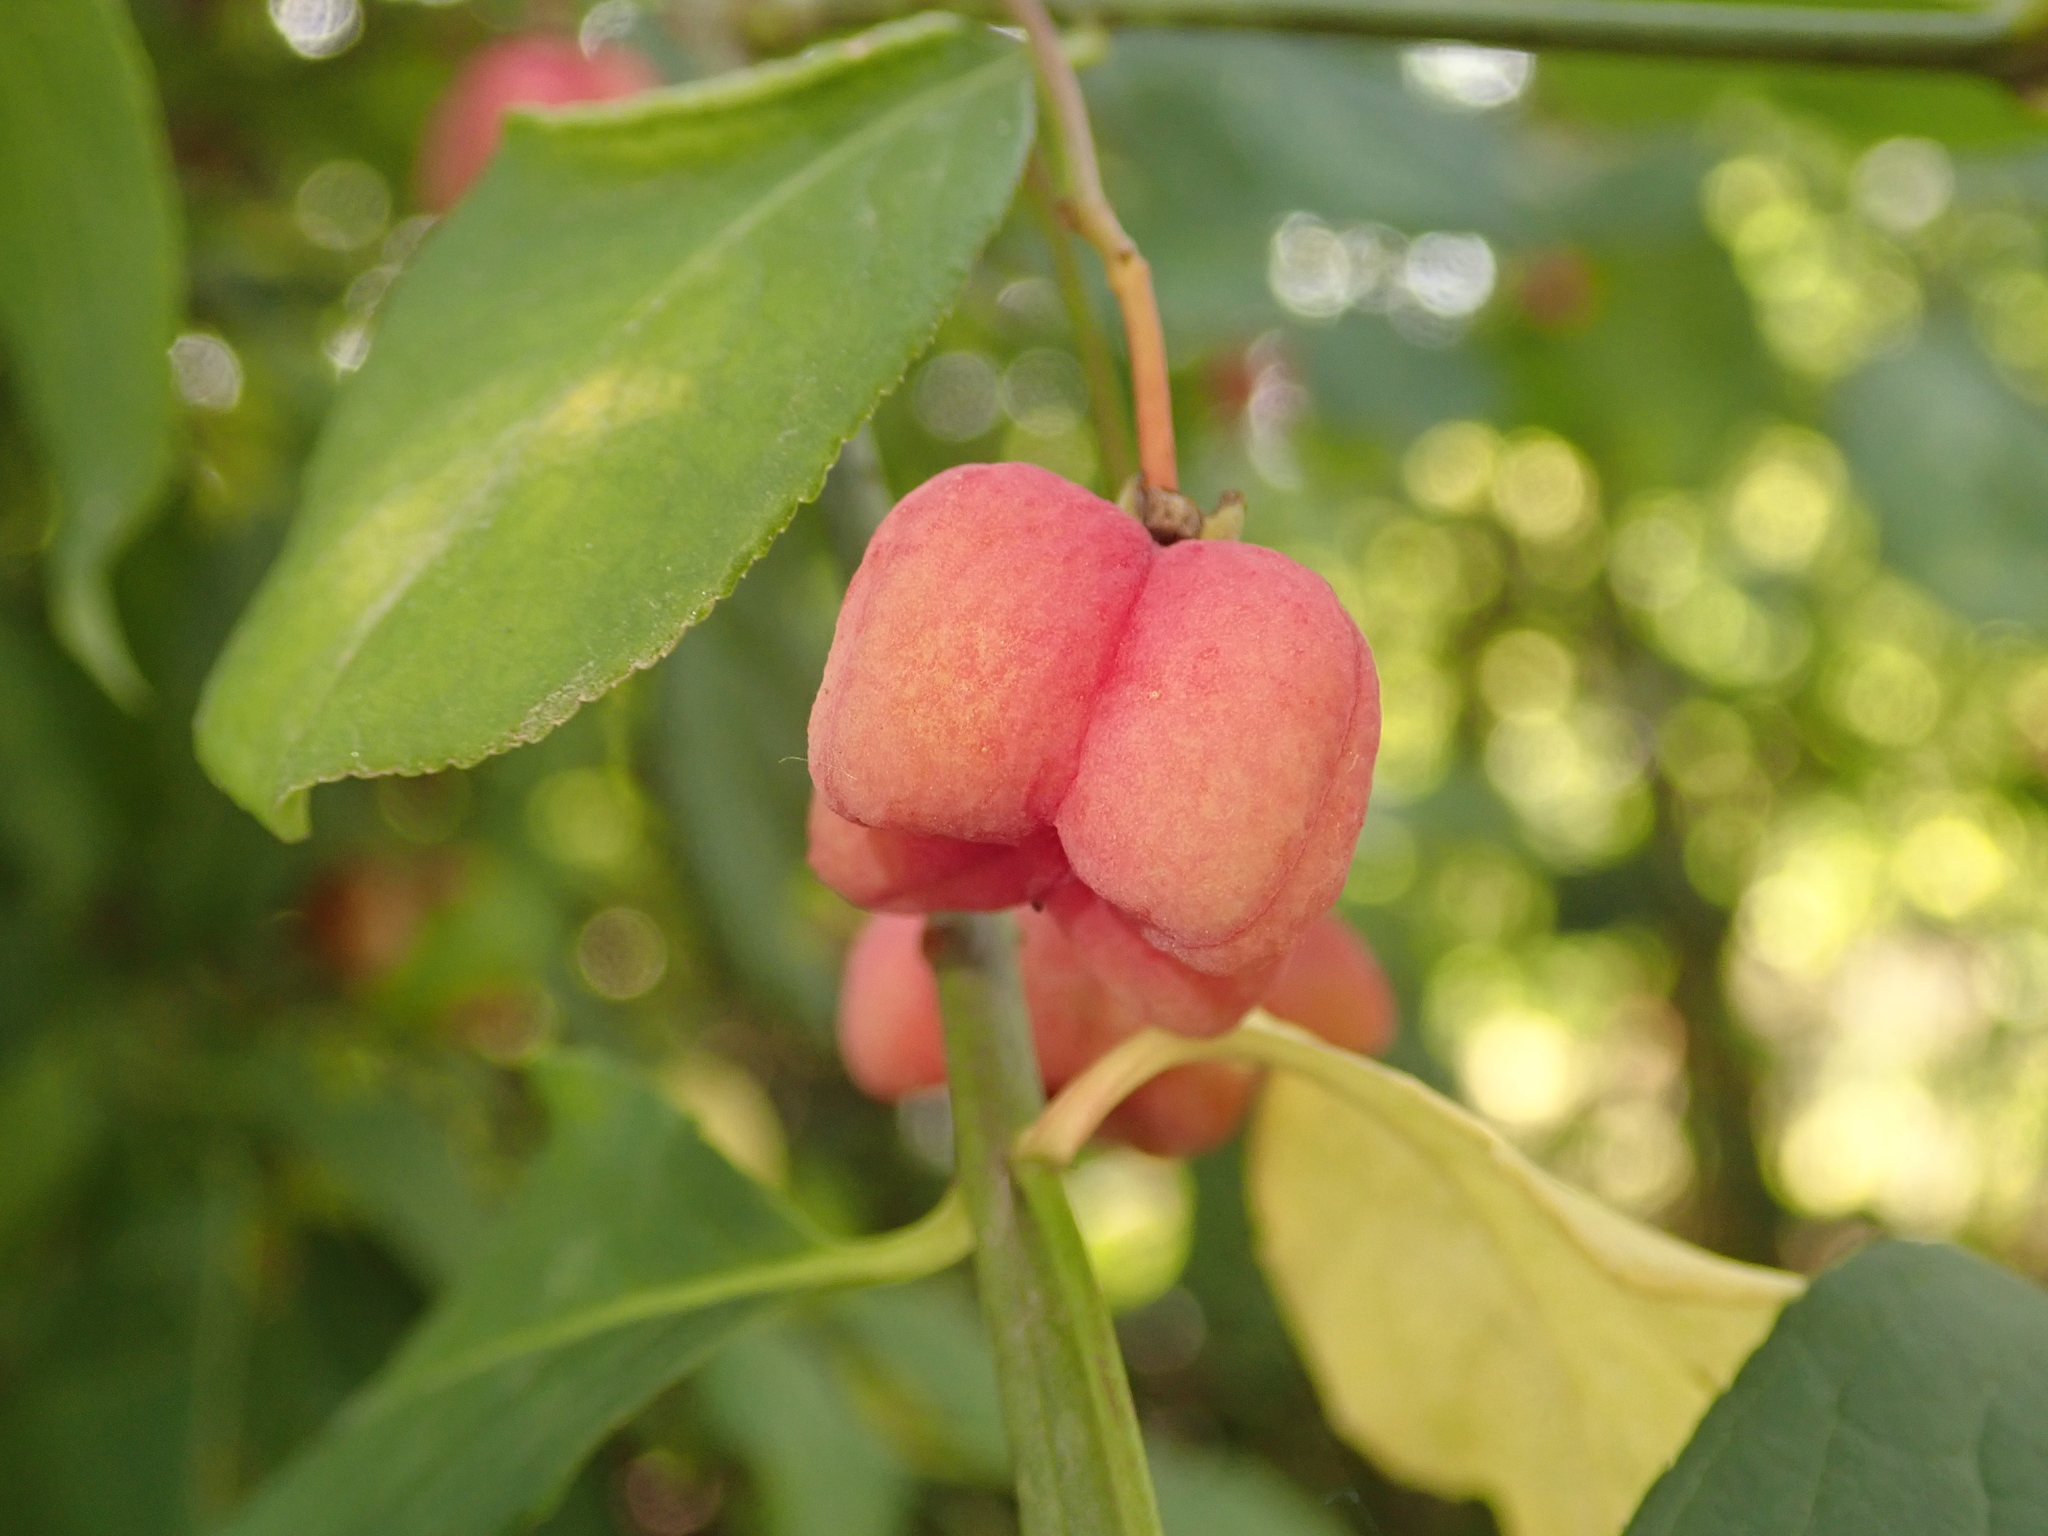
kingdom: Plantae
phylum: Tracheophyta
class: Magnoliopsida
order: Celastrales
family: Celastraceae
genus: Euonymus
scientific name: Euonymus europaeus
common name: Spindle
